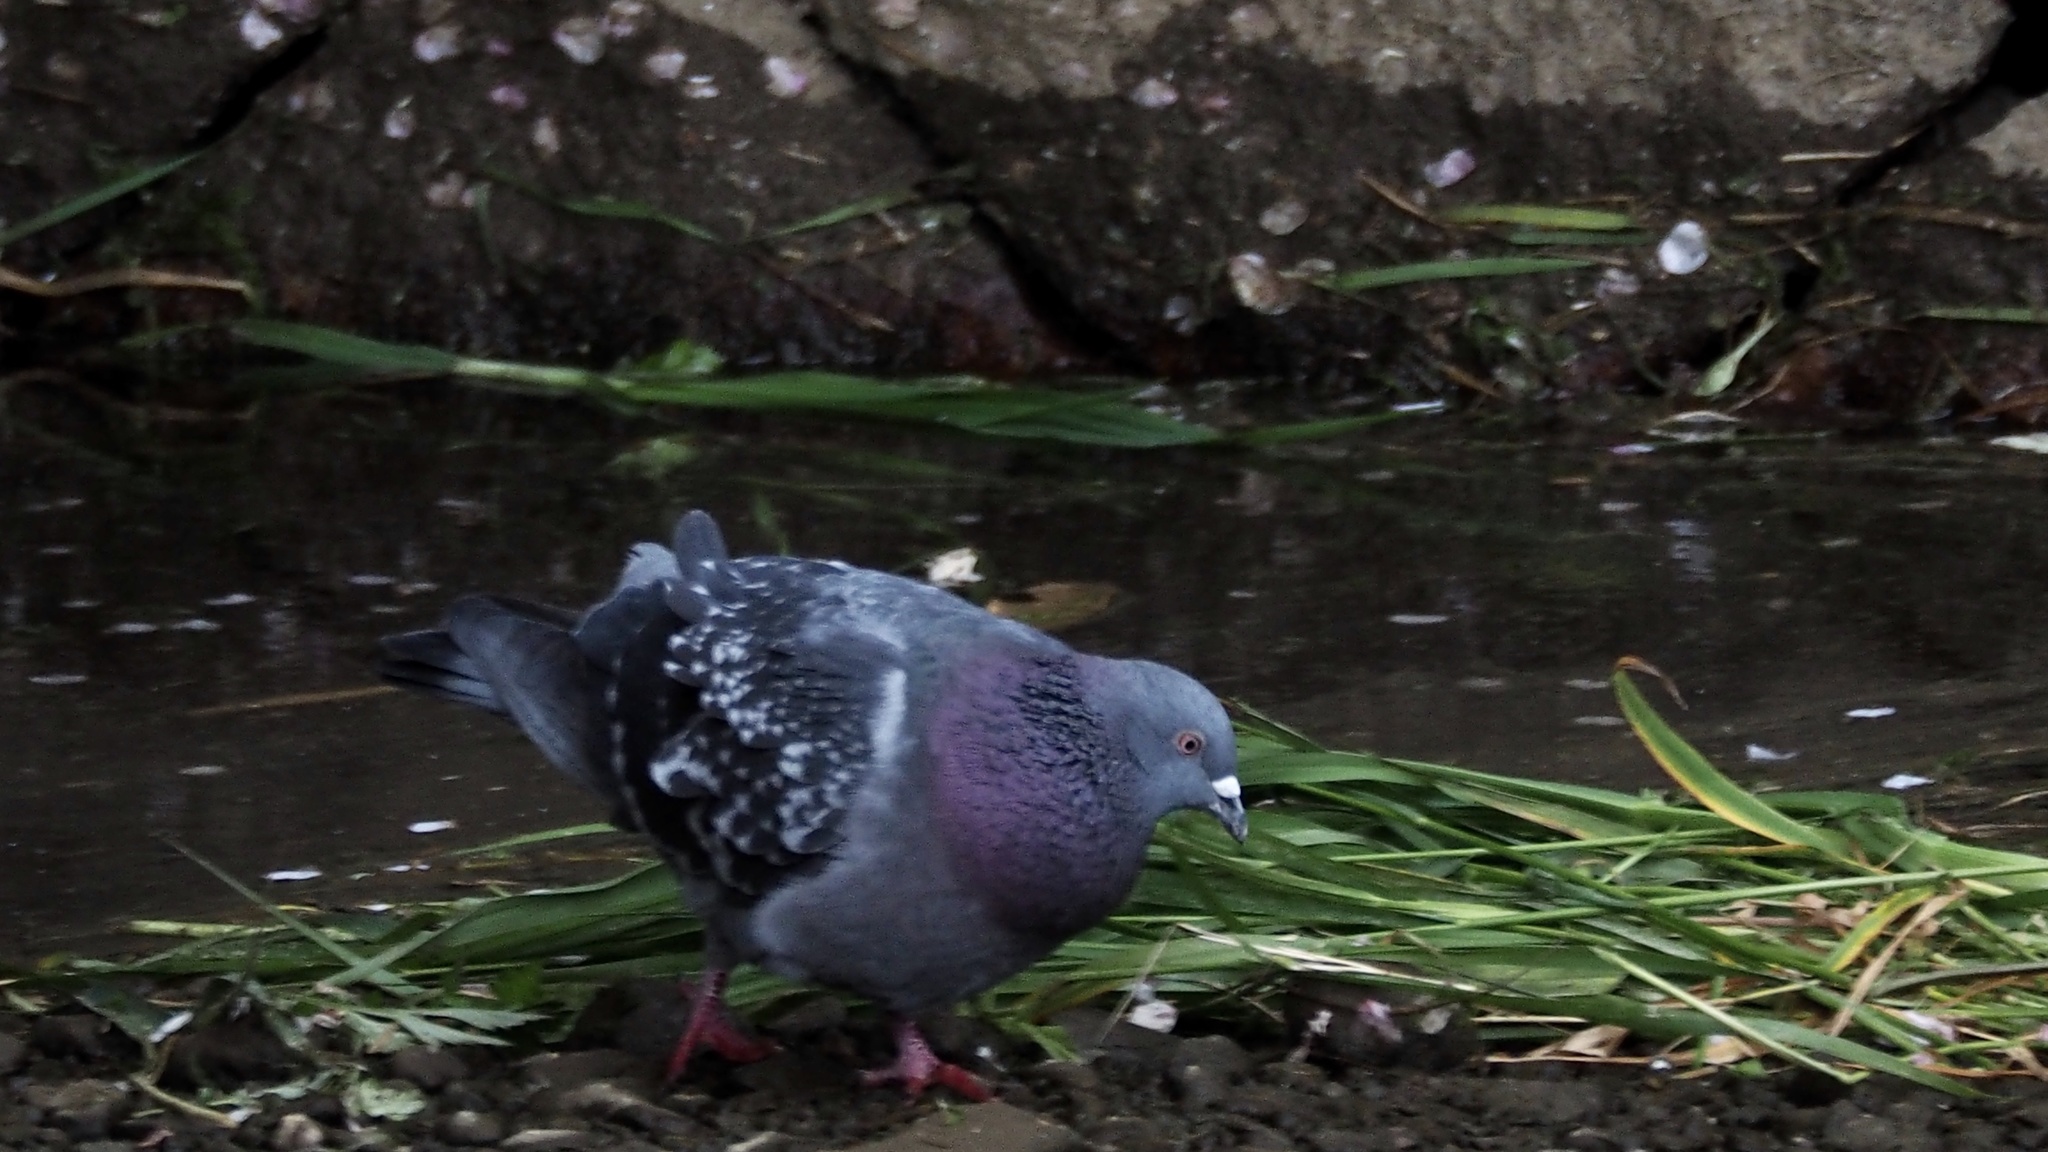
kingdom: Animalia
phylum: Chordata
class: Aves
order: Columbiformes
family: Columbidae
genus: Columba
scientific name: Columba livia
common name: Rock pigeon
